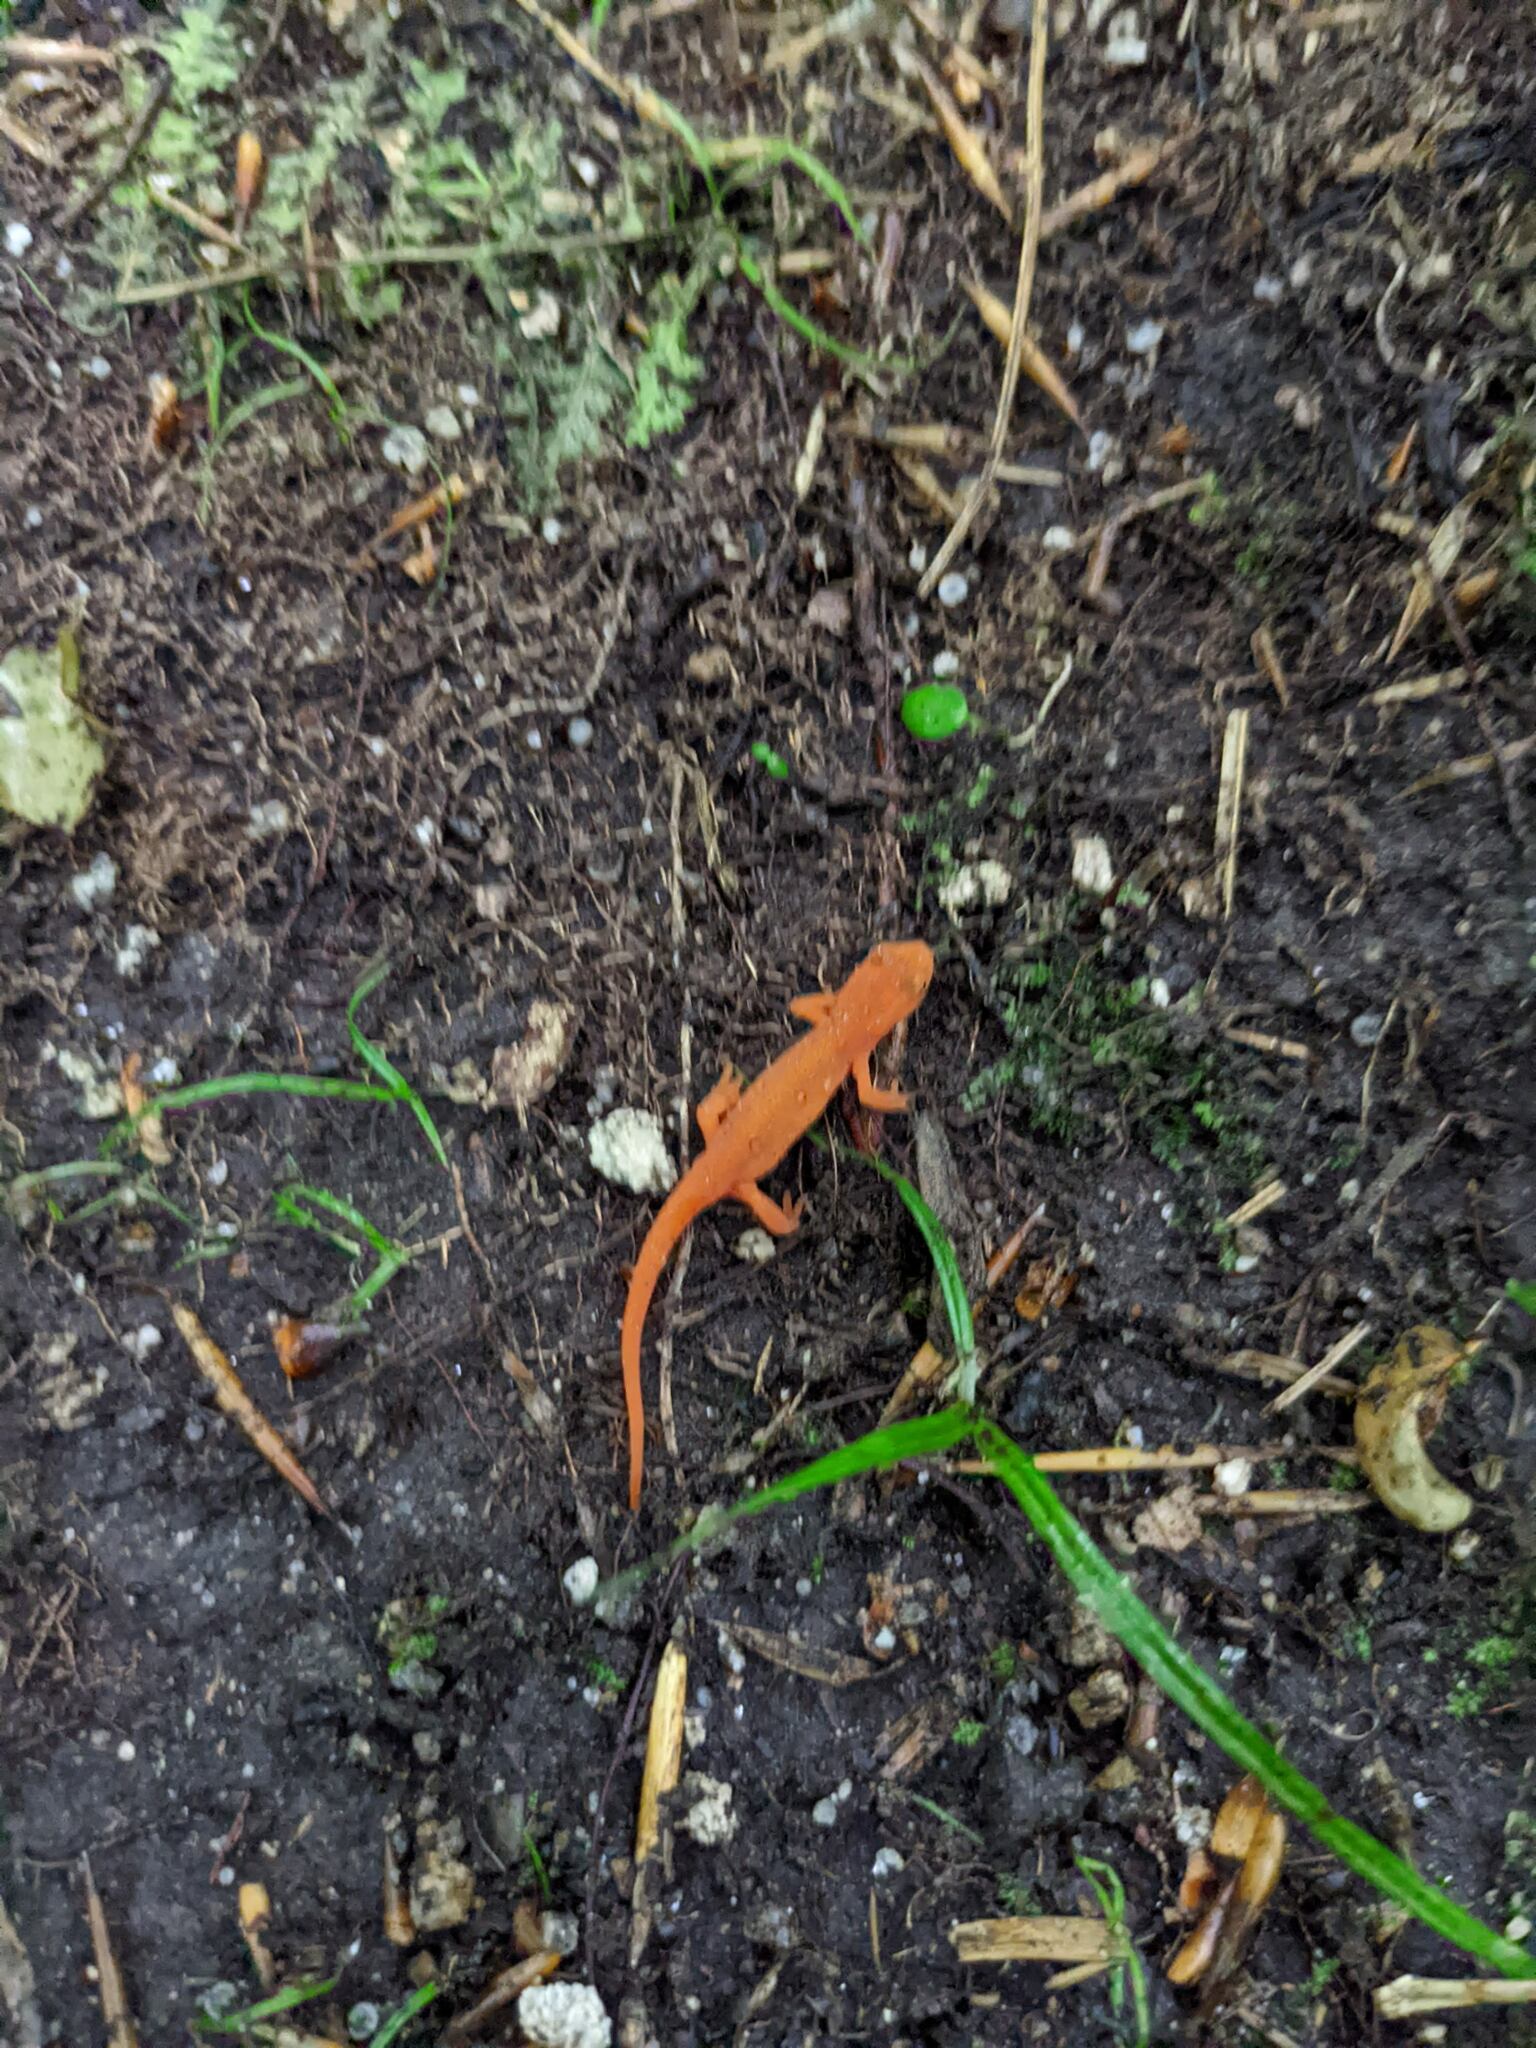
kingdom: Animalia
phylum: Chordata
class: Amphibia
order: Caudata
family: Salamandridae
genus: Notophthalmus
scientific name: Notophthalmus viridescens
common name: Eastern newt
